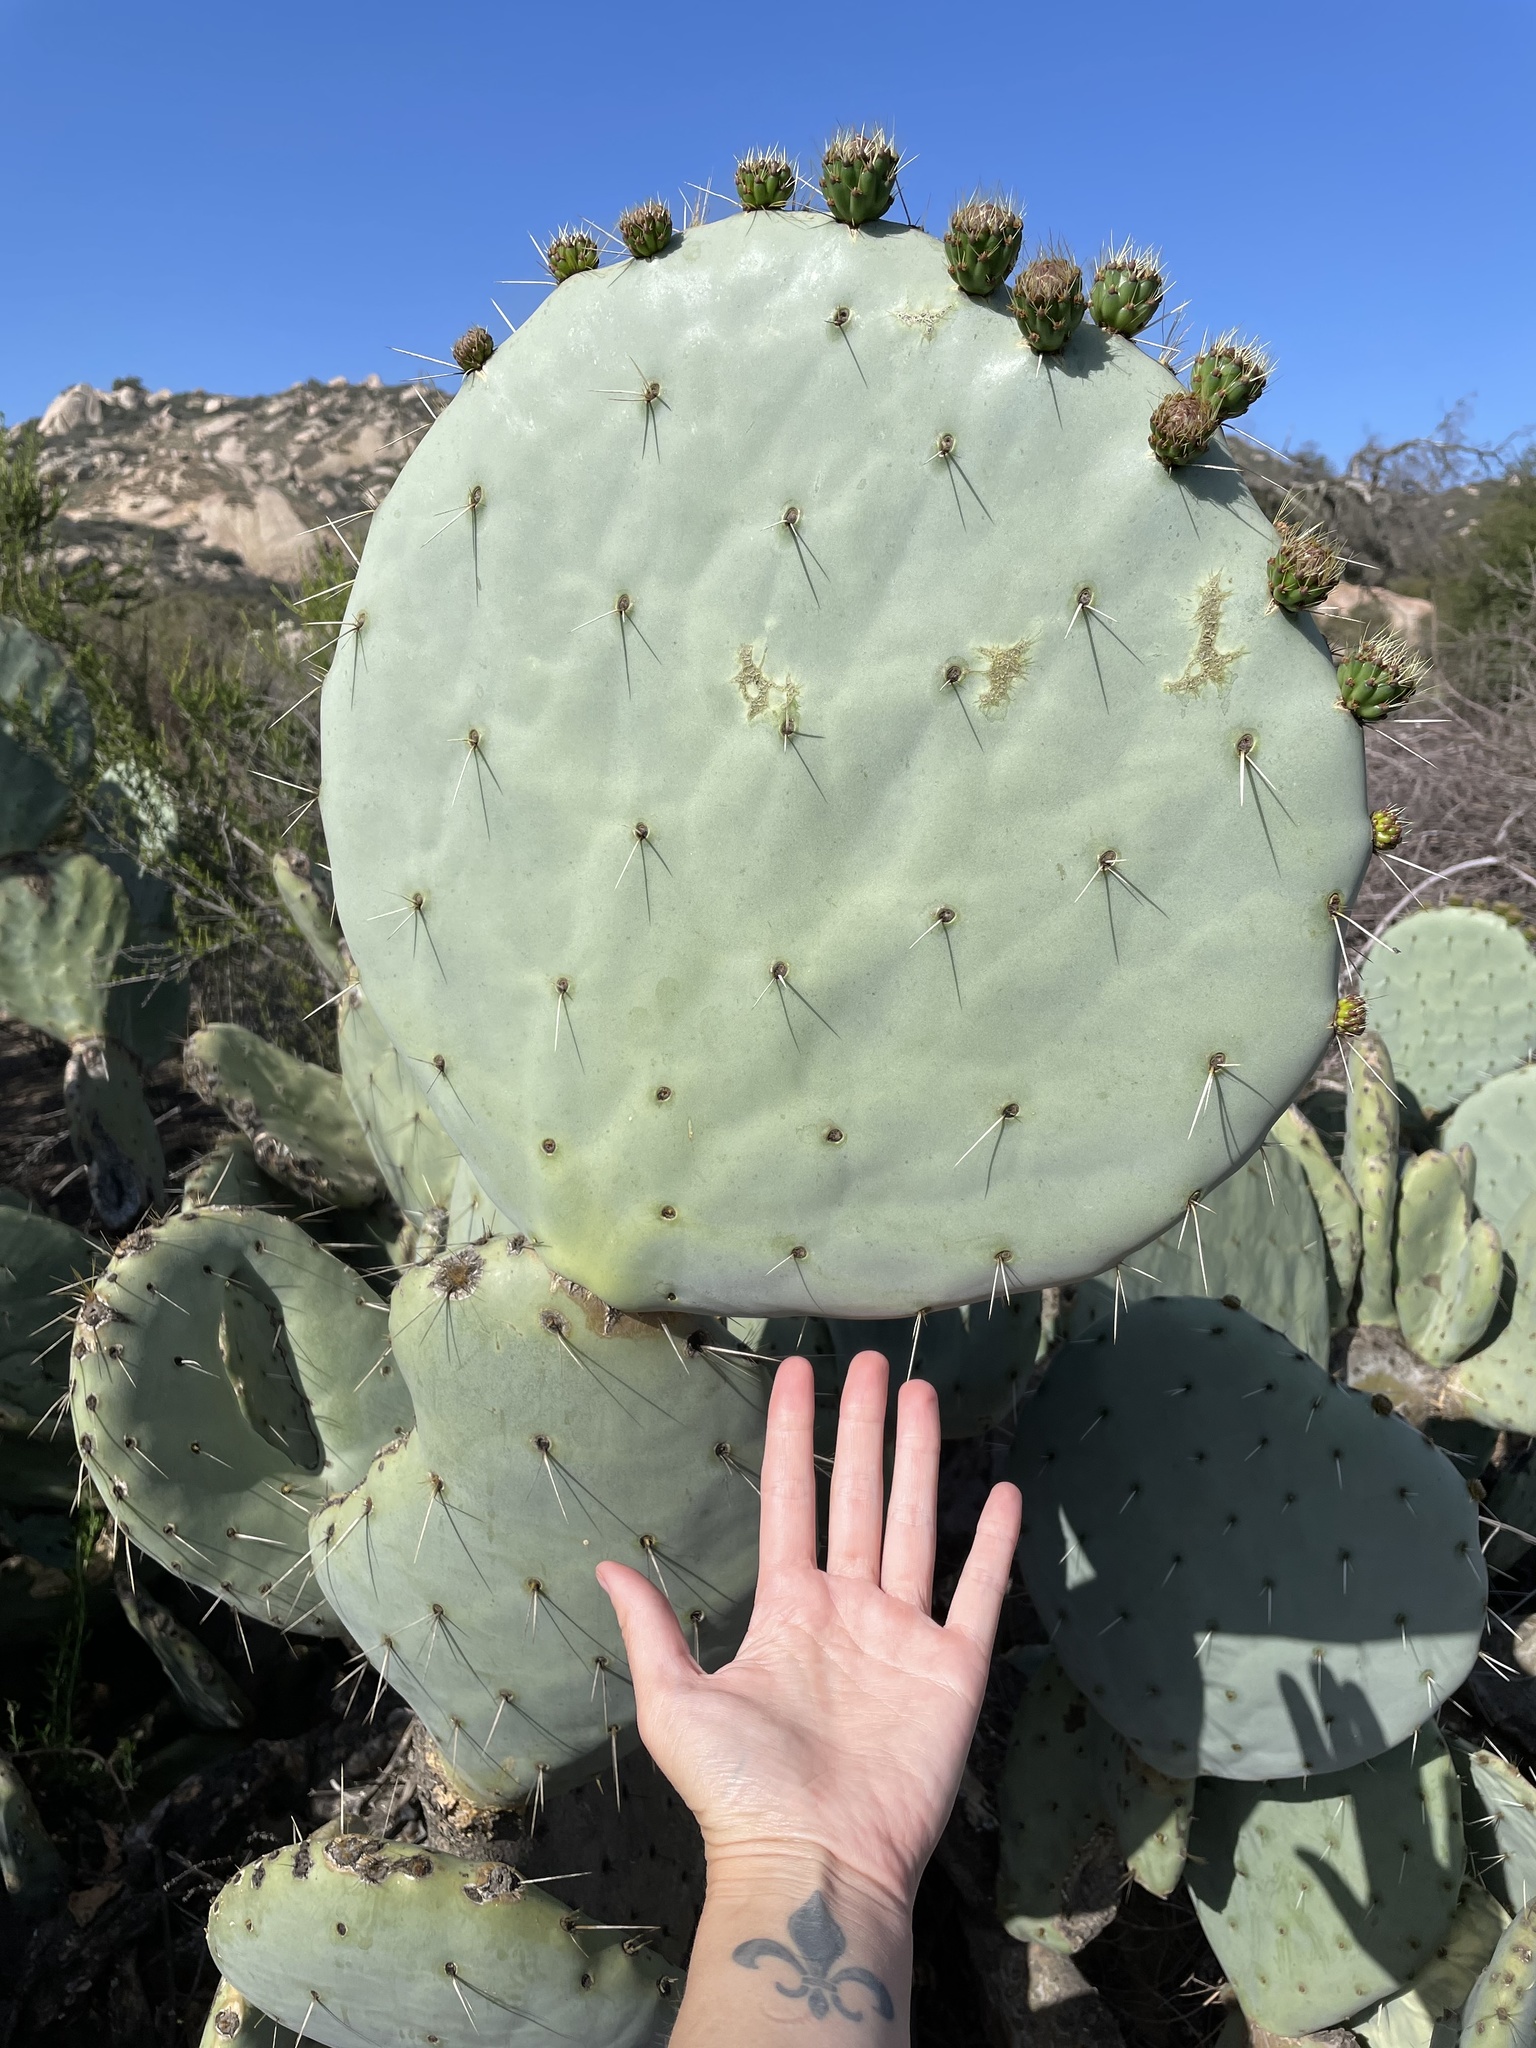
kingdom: Plantae
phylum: Tracheophyta
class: Magnoliopsida
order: Caryophyllales
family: Cactaceae
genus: Opuntia
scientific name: Opuntia robusta
